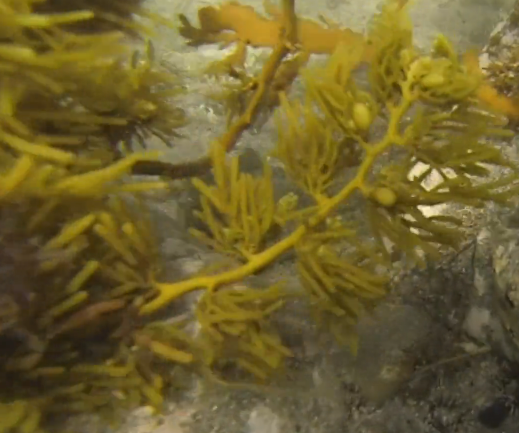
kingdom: Chromista
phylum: Ochrophyta
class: Phaeophyceae
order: Fucales
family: Sargassaceae
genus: Cystophora
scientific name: Cystophora retroflexa
